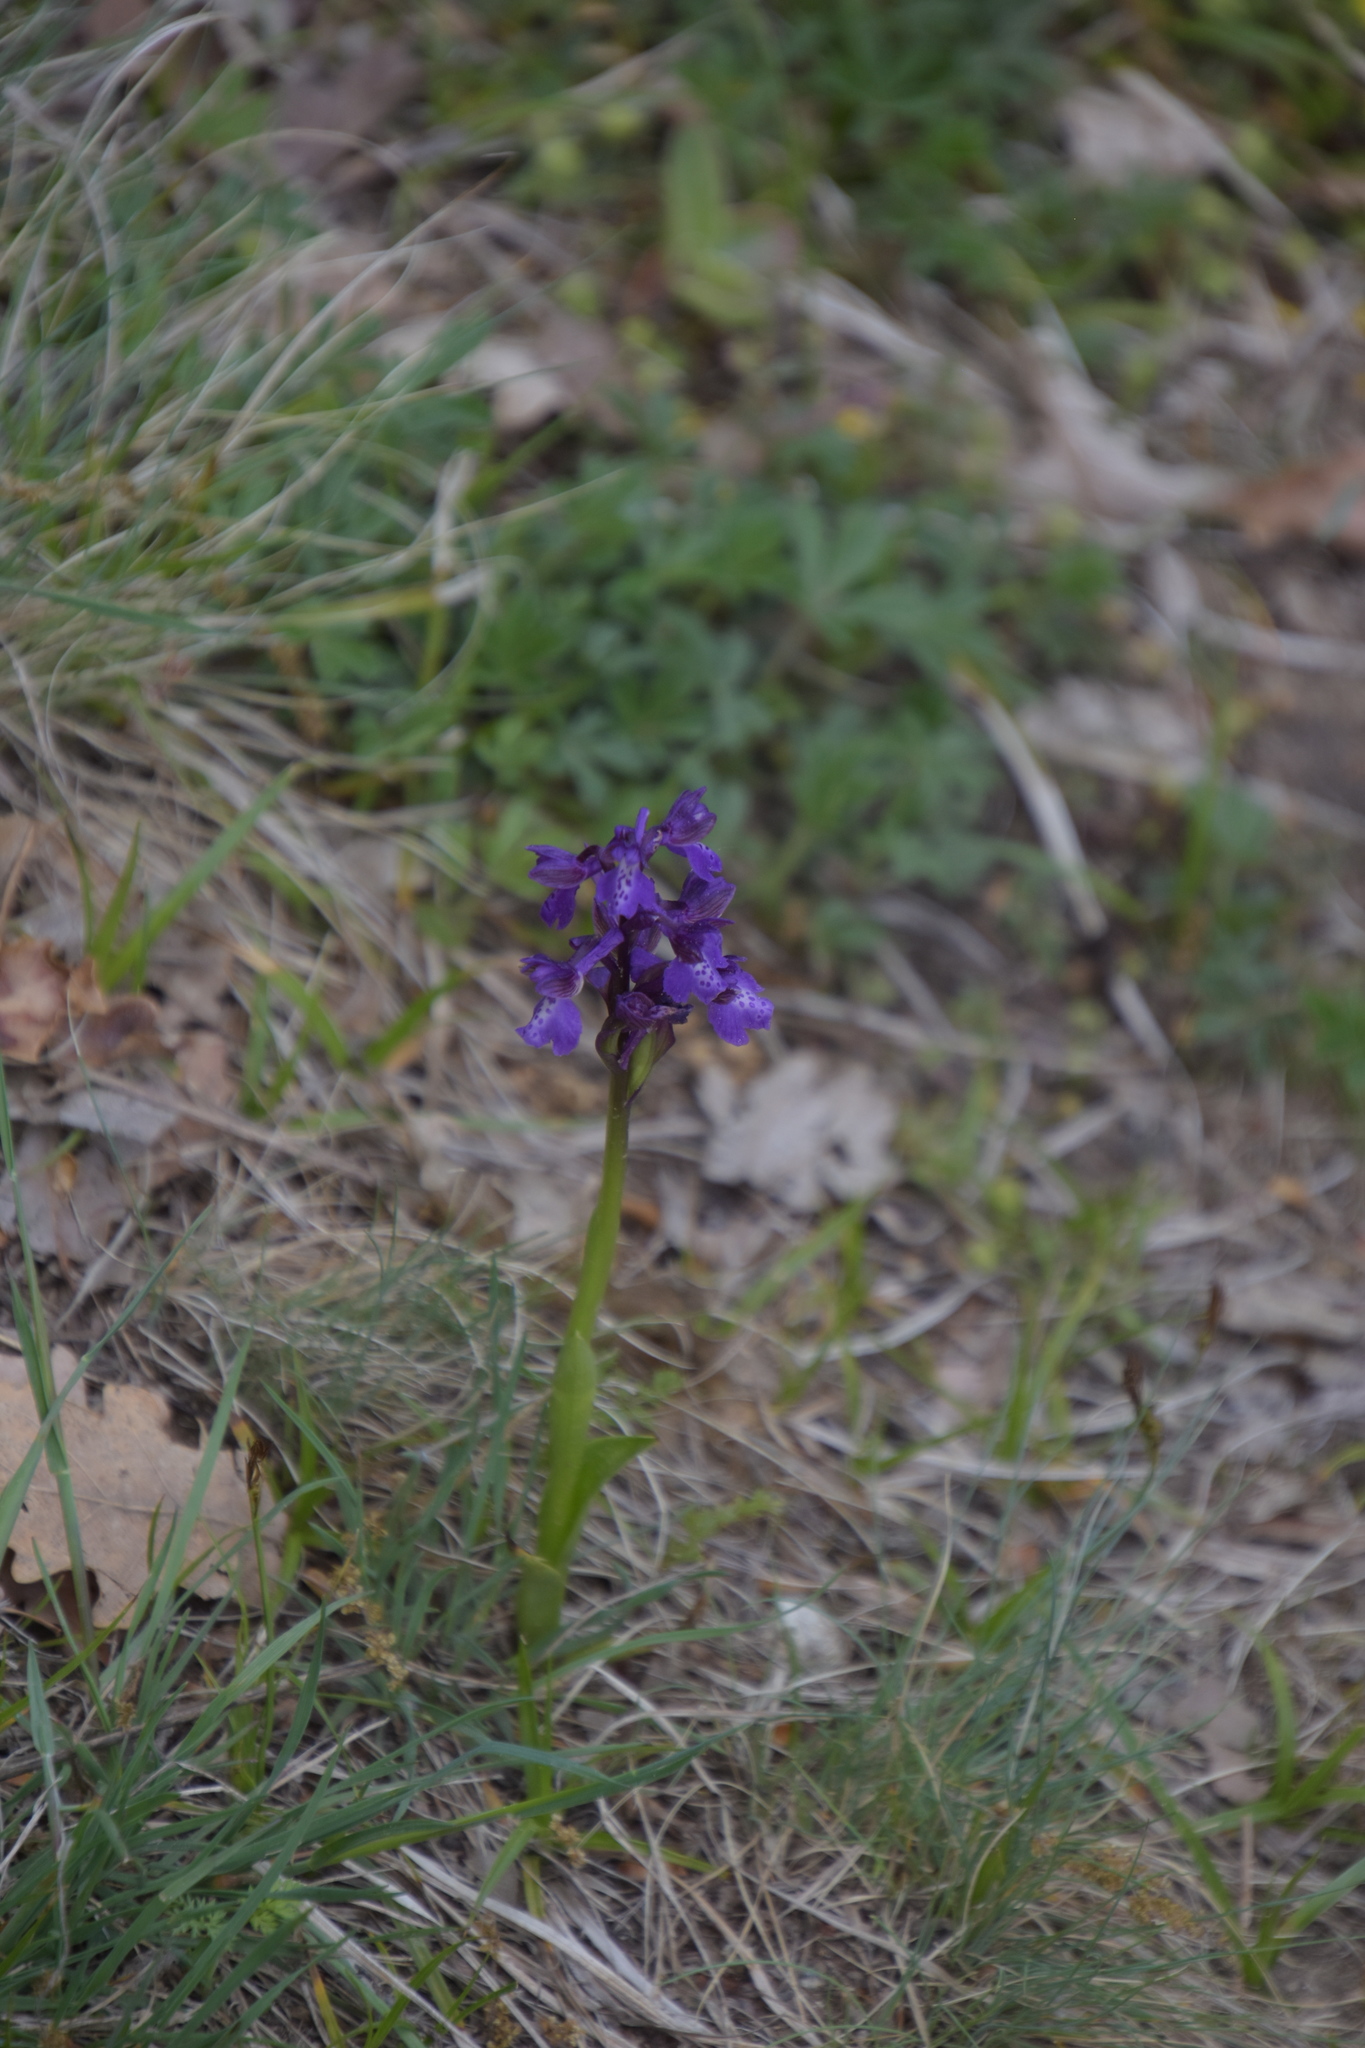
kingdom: Plantae
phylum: Tracheophyta
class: Liliopsida
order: Asparagales
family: Orchidaceae
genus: Anacamptis
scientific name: Anacamptis morio
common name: Green-winged orchid
